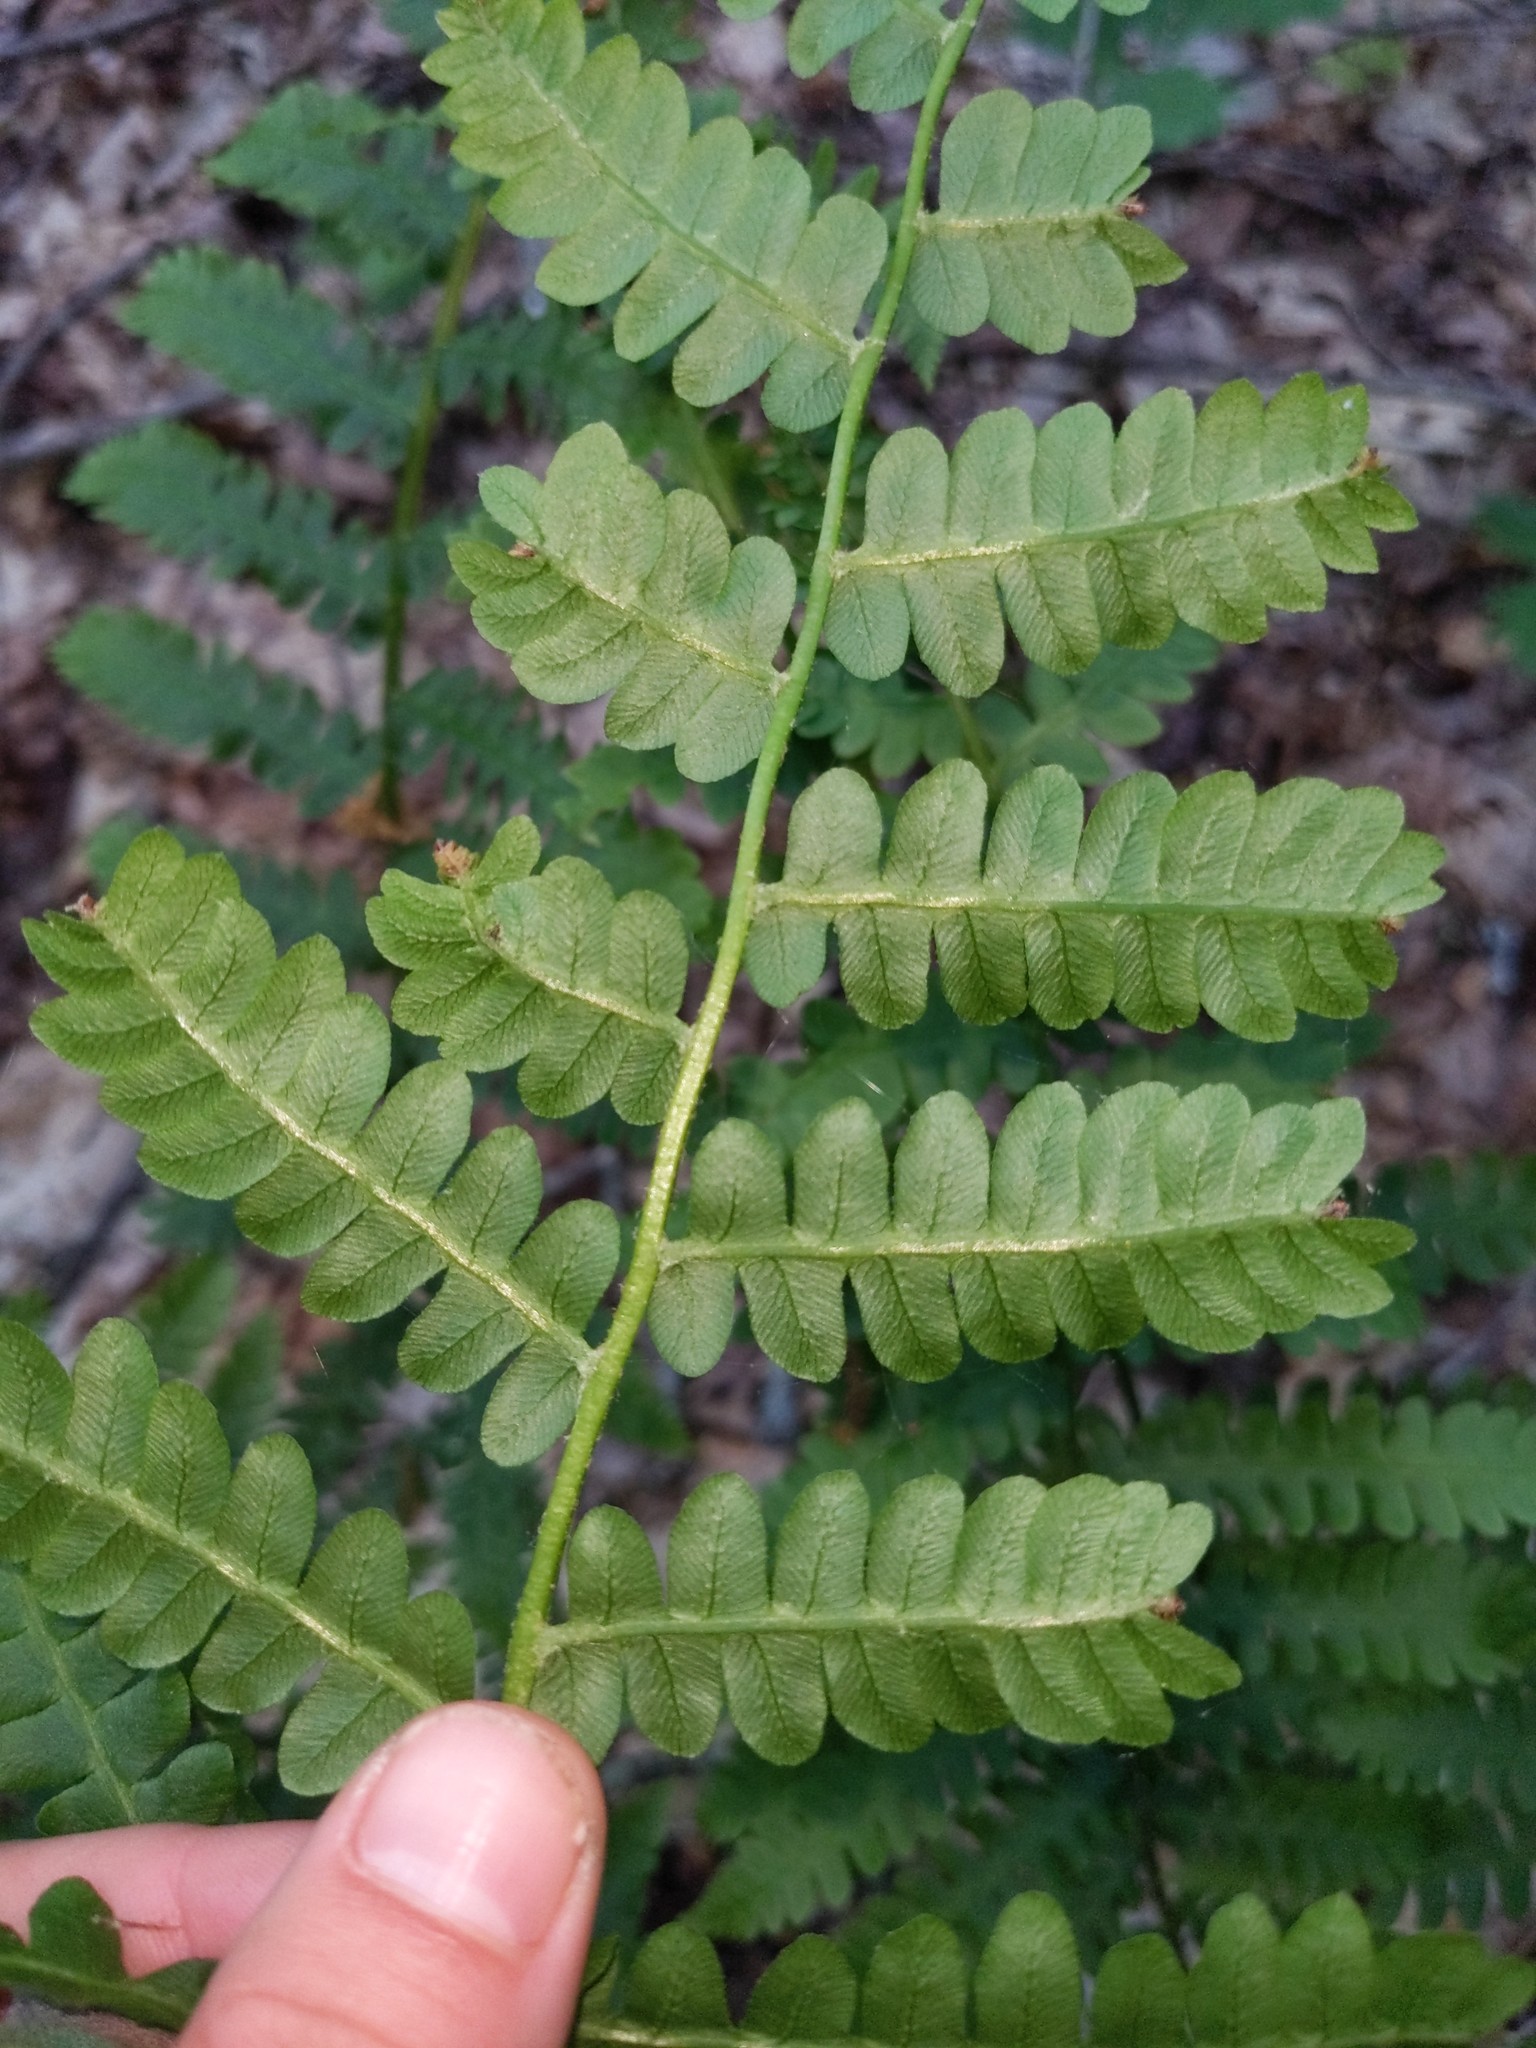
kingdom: Plantae
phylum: Tracheophyta
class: Polypodiopsida
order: Osmundales
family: Osmundaceae
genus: Osmundastrum
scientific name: Osmundastrum cinnamomeum
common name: Cinnamon fern
